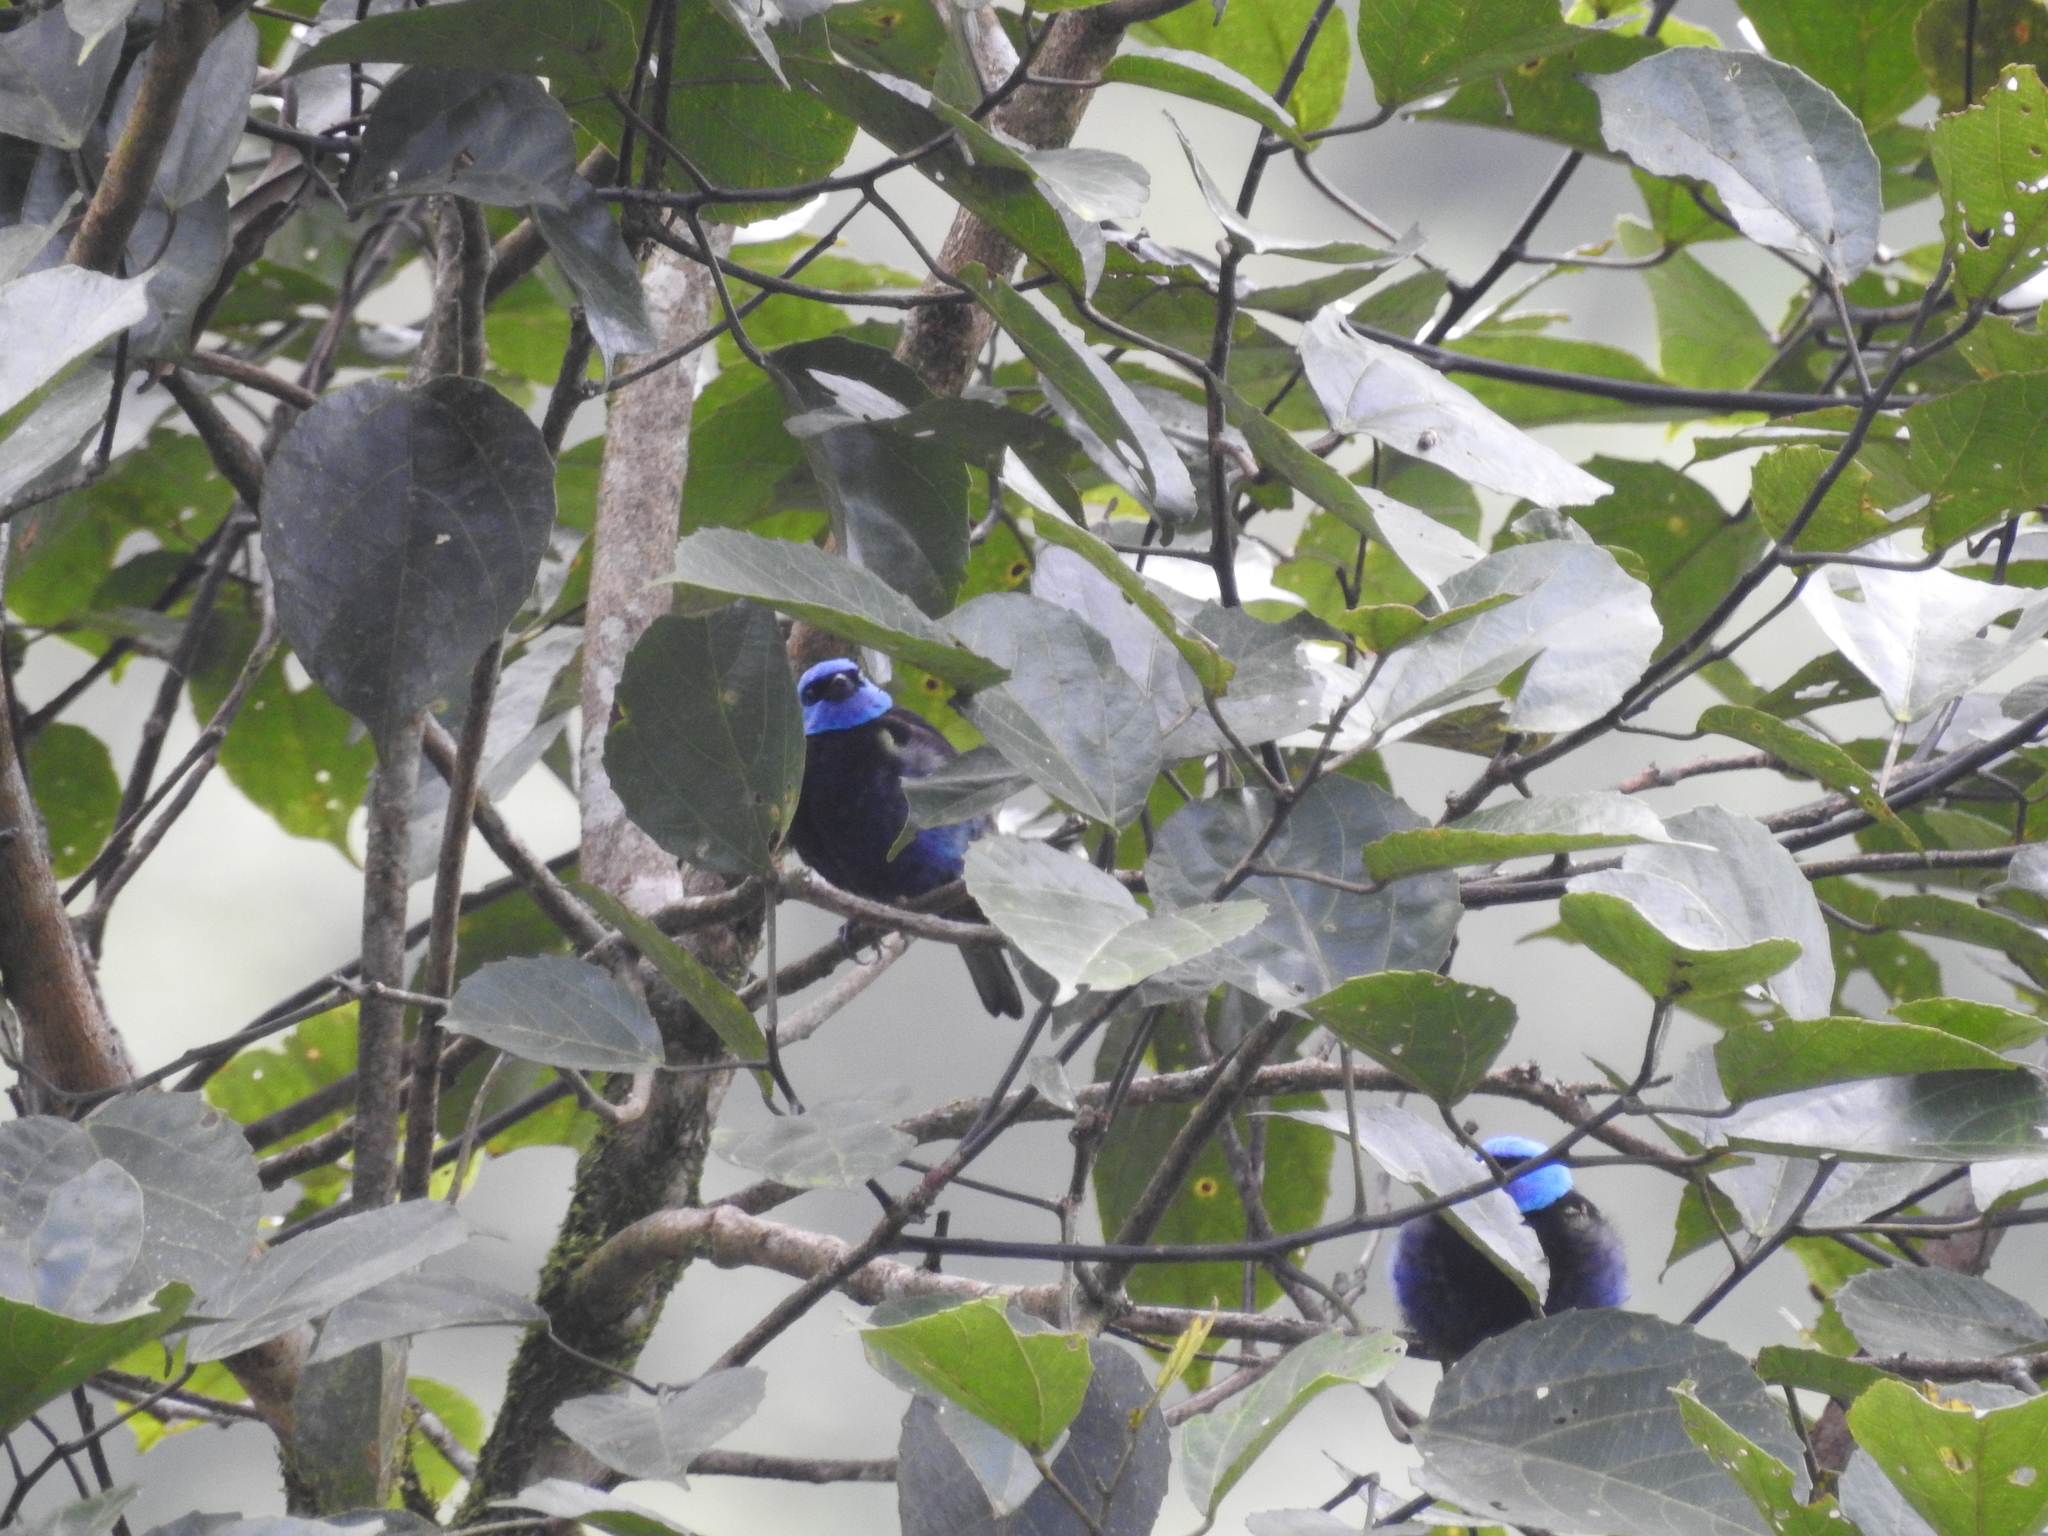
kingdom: Animalia
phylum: Chordata
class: Aves
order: Passeriformes
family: Thraupidae
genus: Stilpnia
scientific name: Stilpnia cyanicollis
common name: Blue-necked tanager
